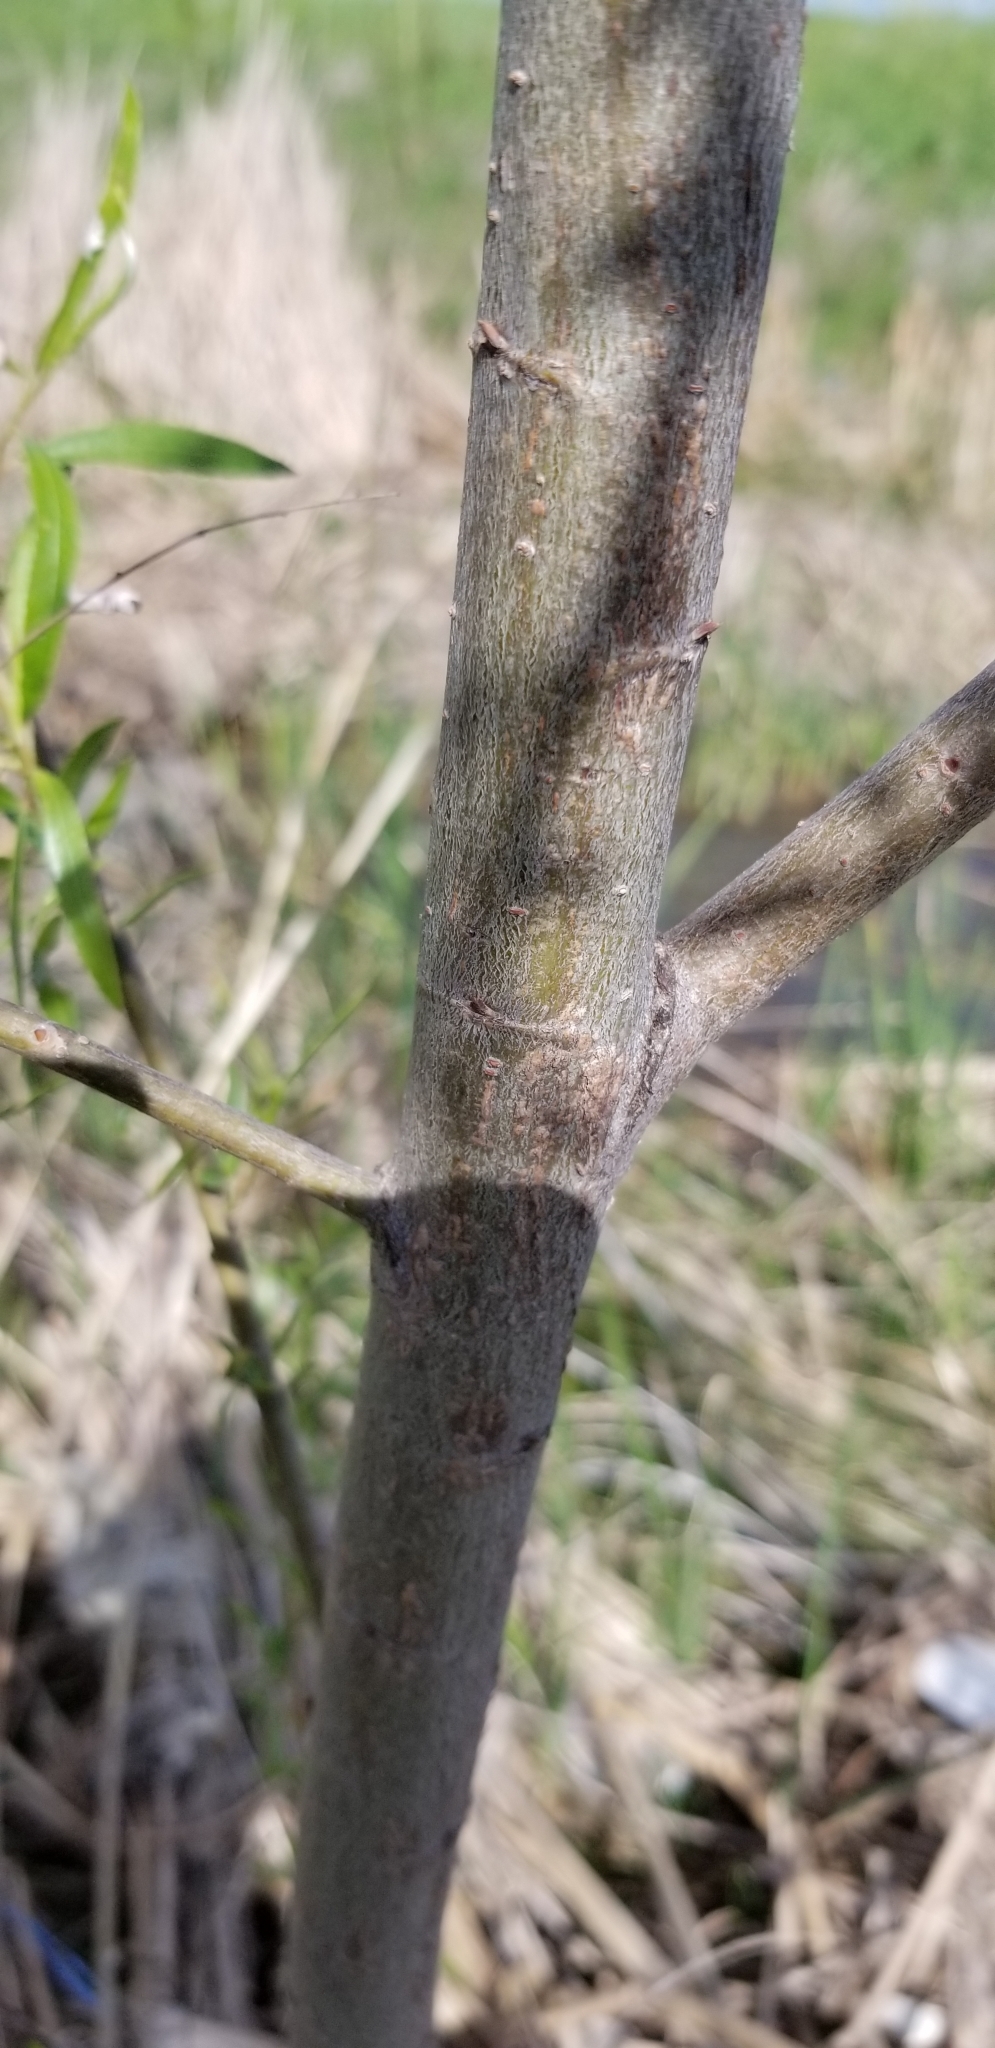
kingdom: Plantae
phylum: Tracheophyta
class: Magnoliopsida
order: Malpighiales
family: Salicaceae
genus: Salix
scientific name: Salix nigra
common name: Black willow
